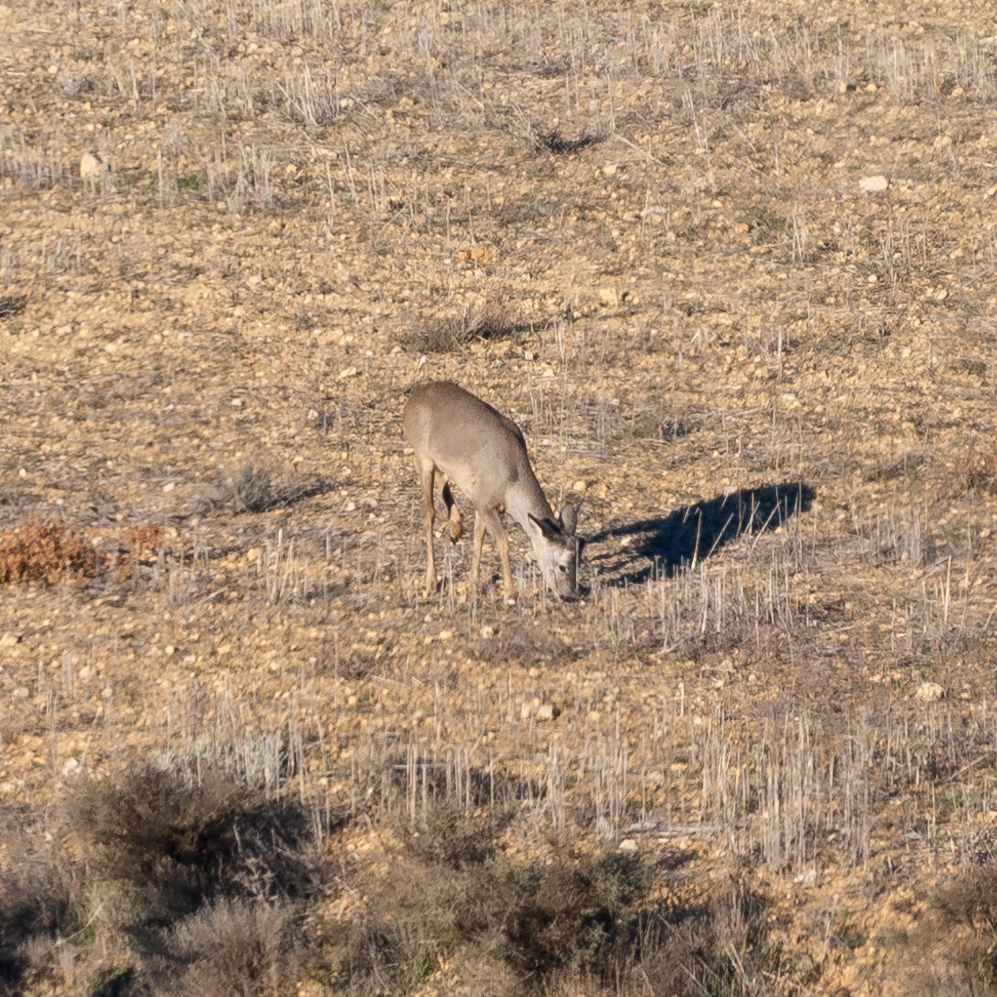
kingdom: Animalia
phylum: Chordata
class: Mammalia
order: Artiodactyla
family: Cervidae
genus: Capreolus
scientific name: Capreolus capreolus
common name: Western roe deer
